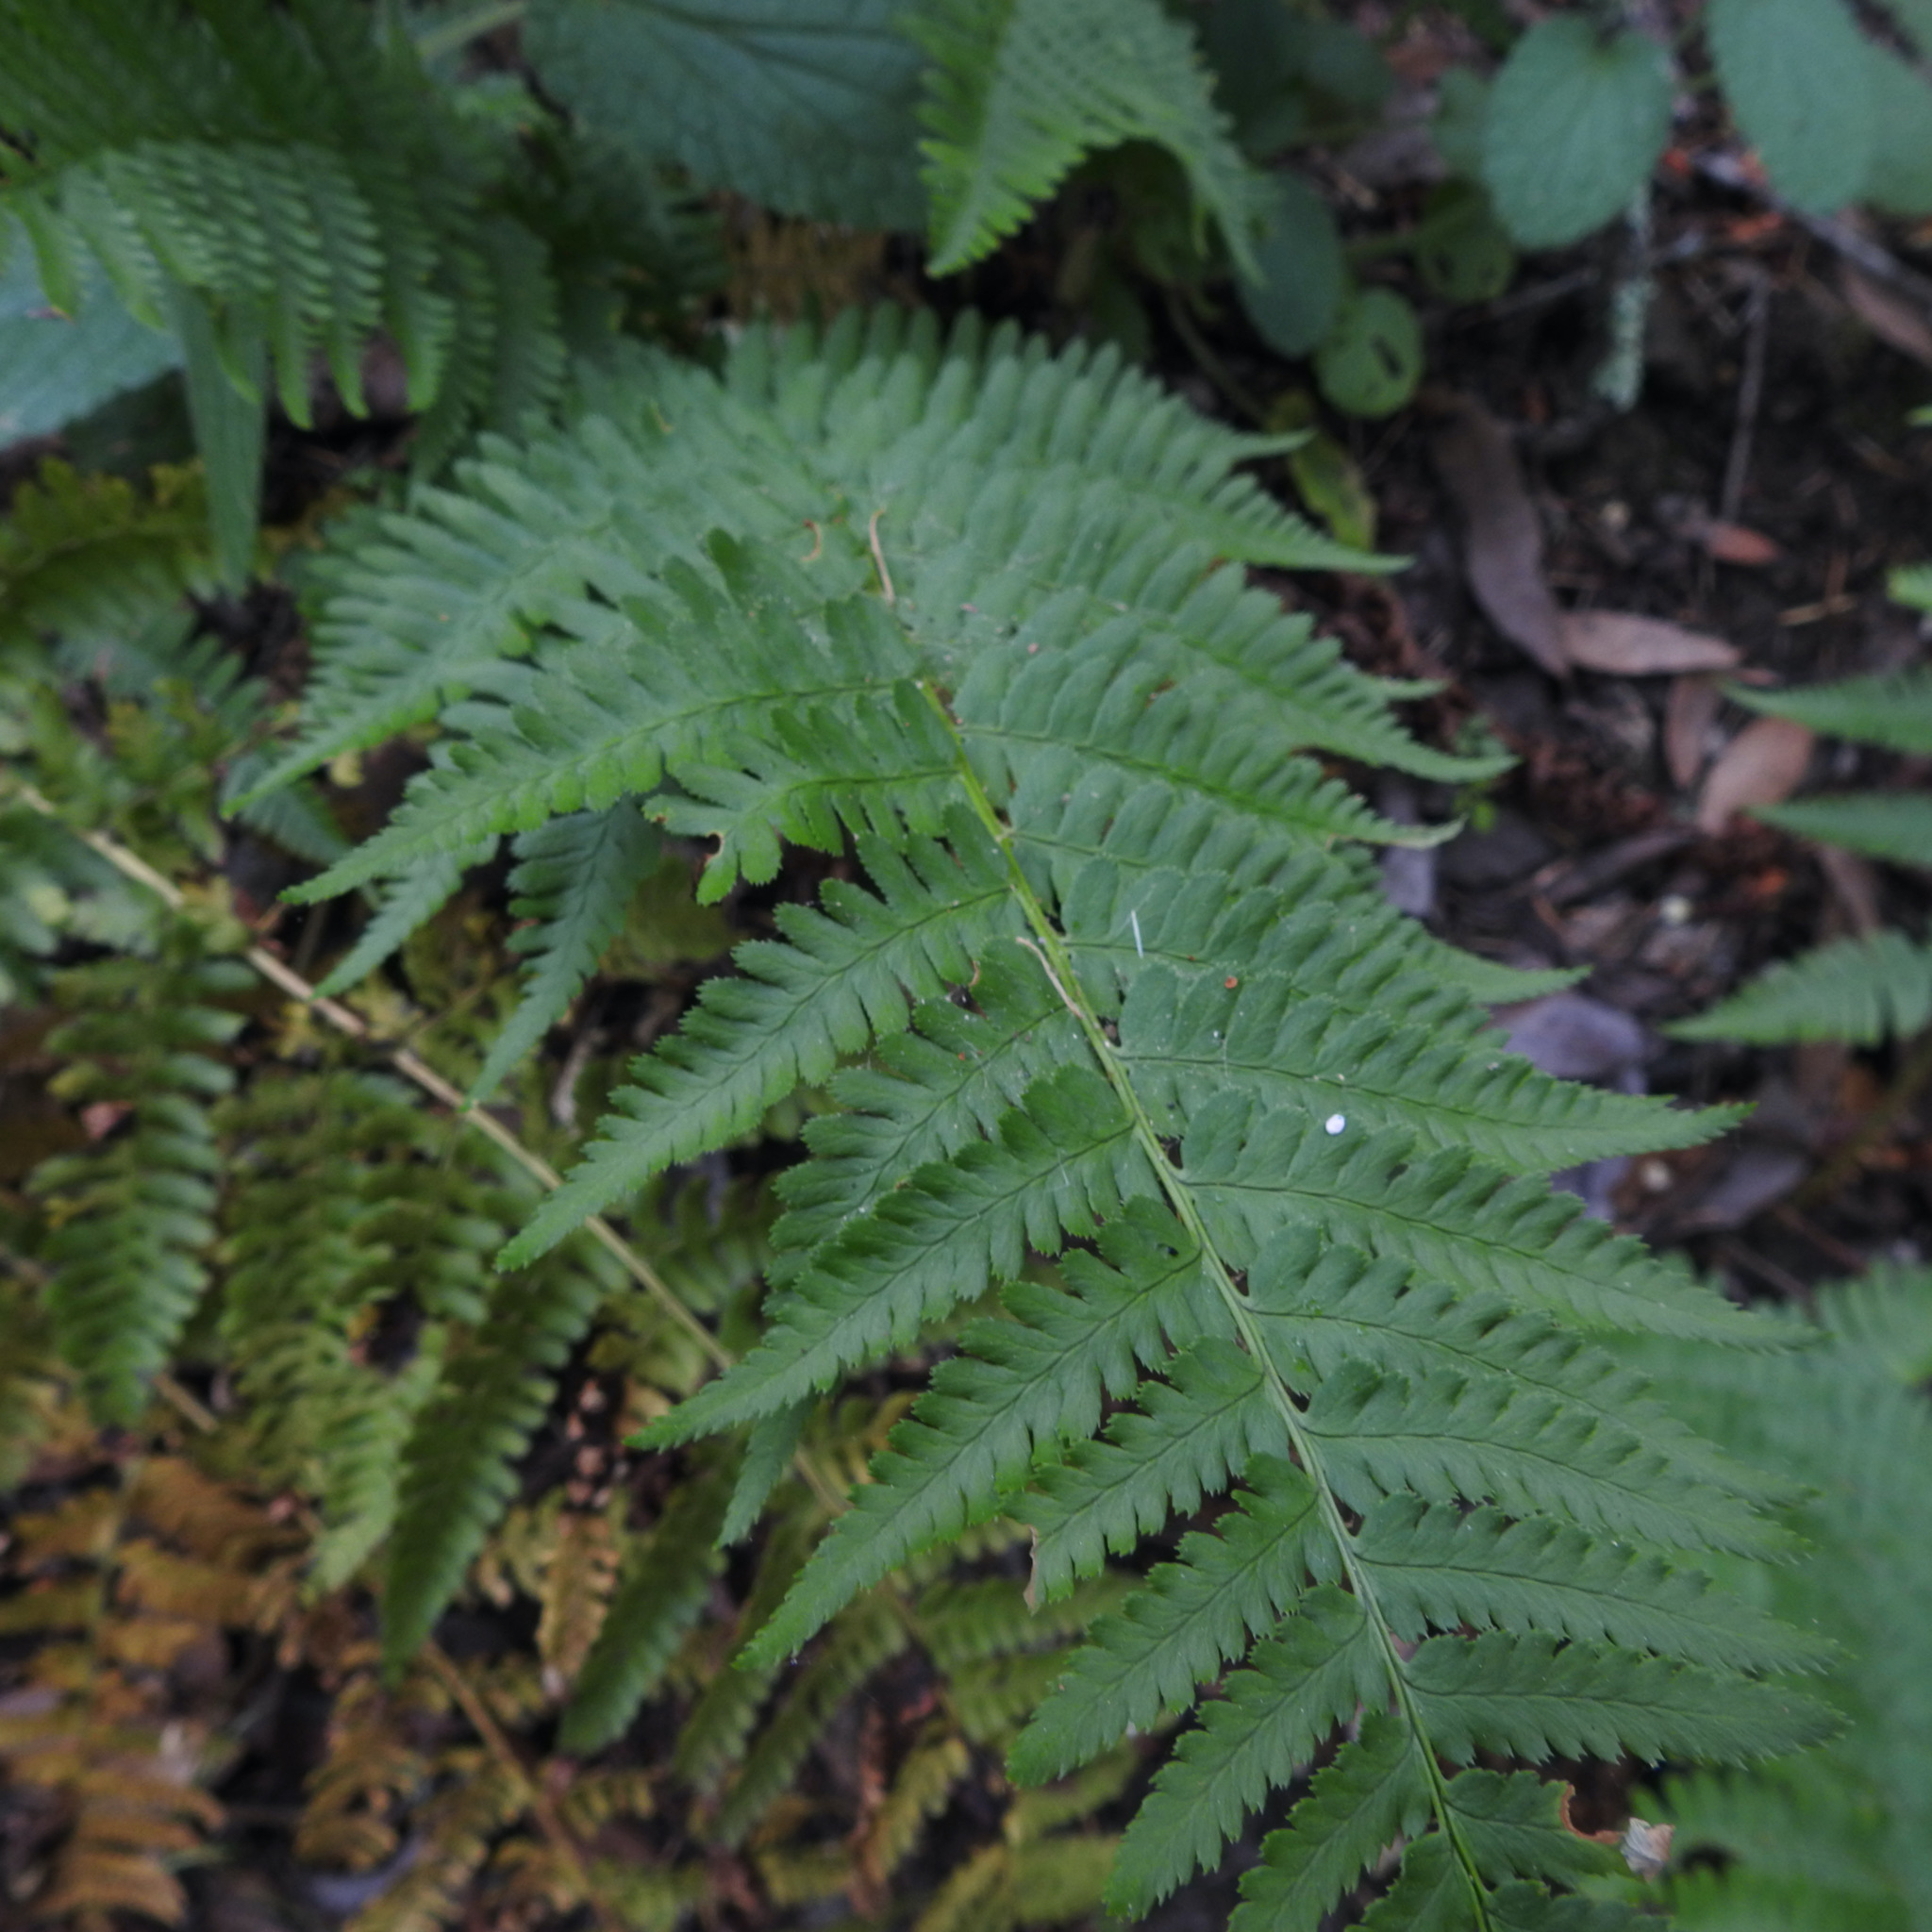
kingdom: Plantae
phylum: Tracheophyta
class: Polypodiopsida
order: Polypodiales
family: Dryopteridaceae
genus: Dryopteris
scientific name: Dryopteris arguta
